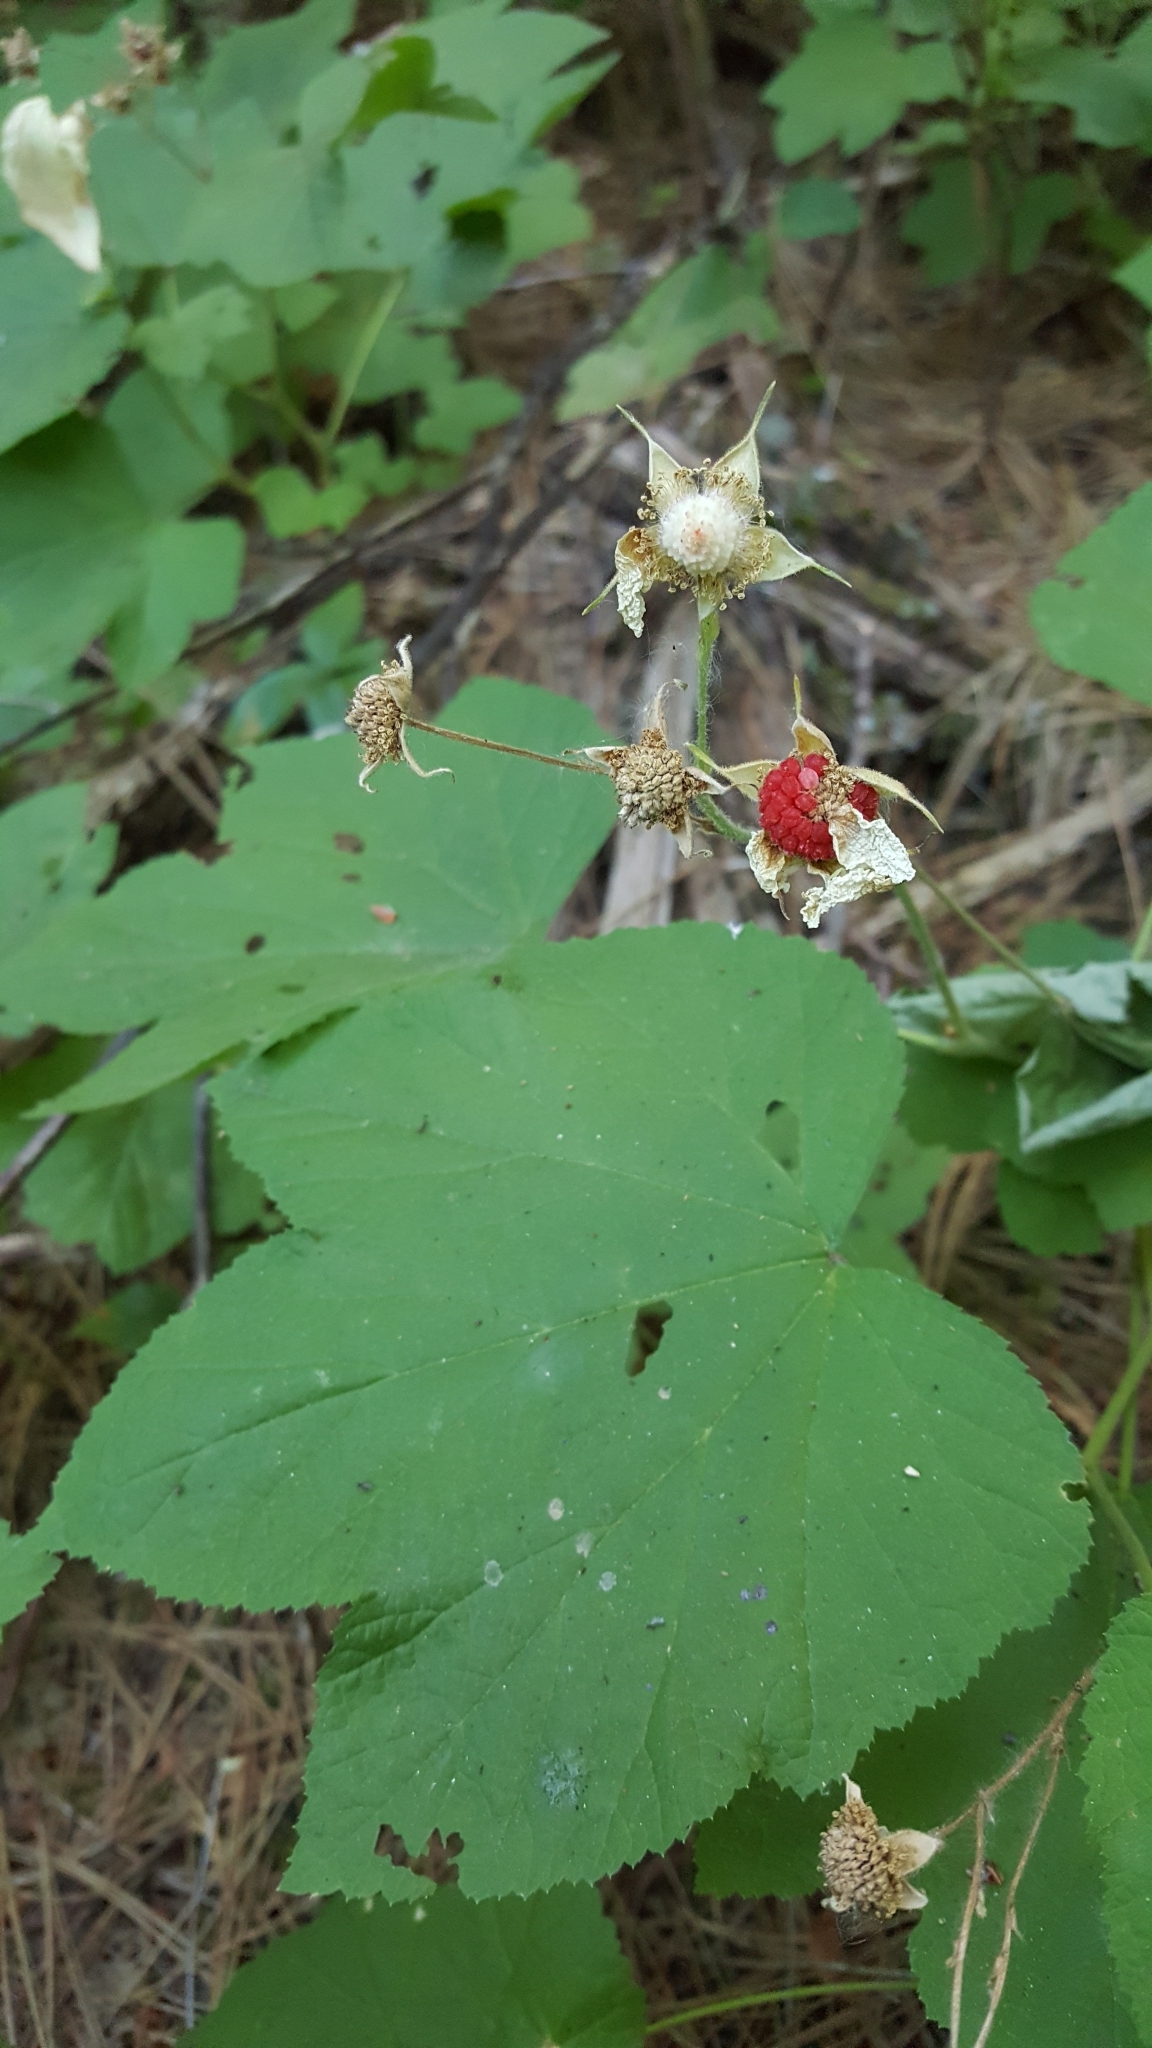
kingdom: Plantae
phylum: Tracheophyta
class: Magnoliopsida
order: Rosales
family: Rosaceae
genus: Rubus
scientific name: Rubus parviflorus
